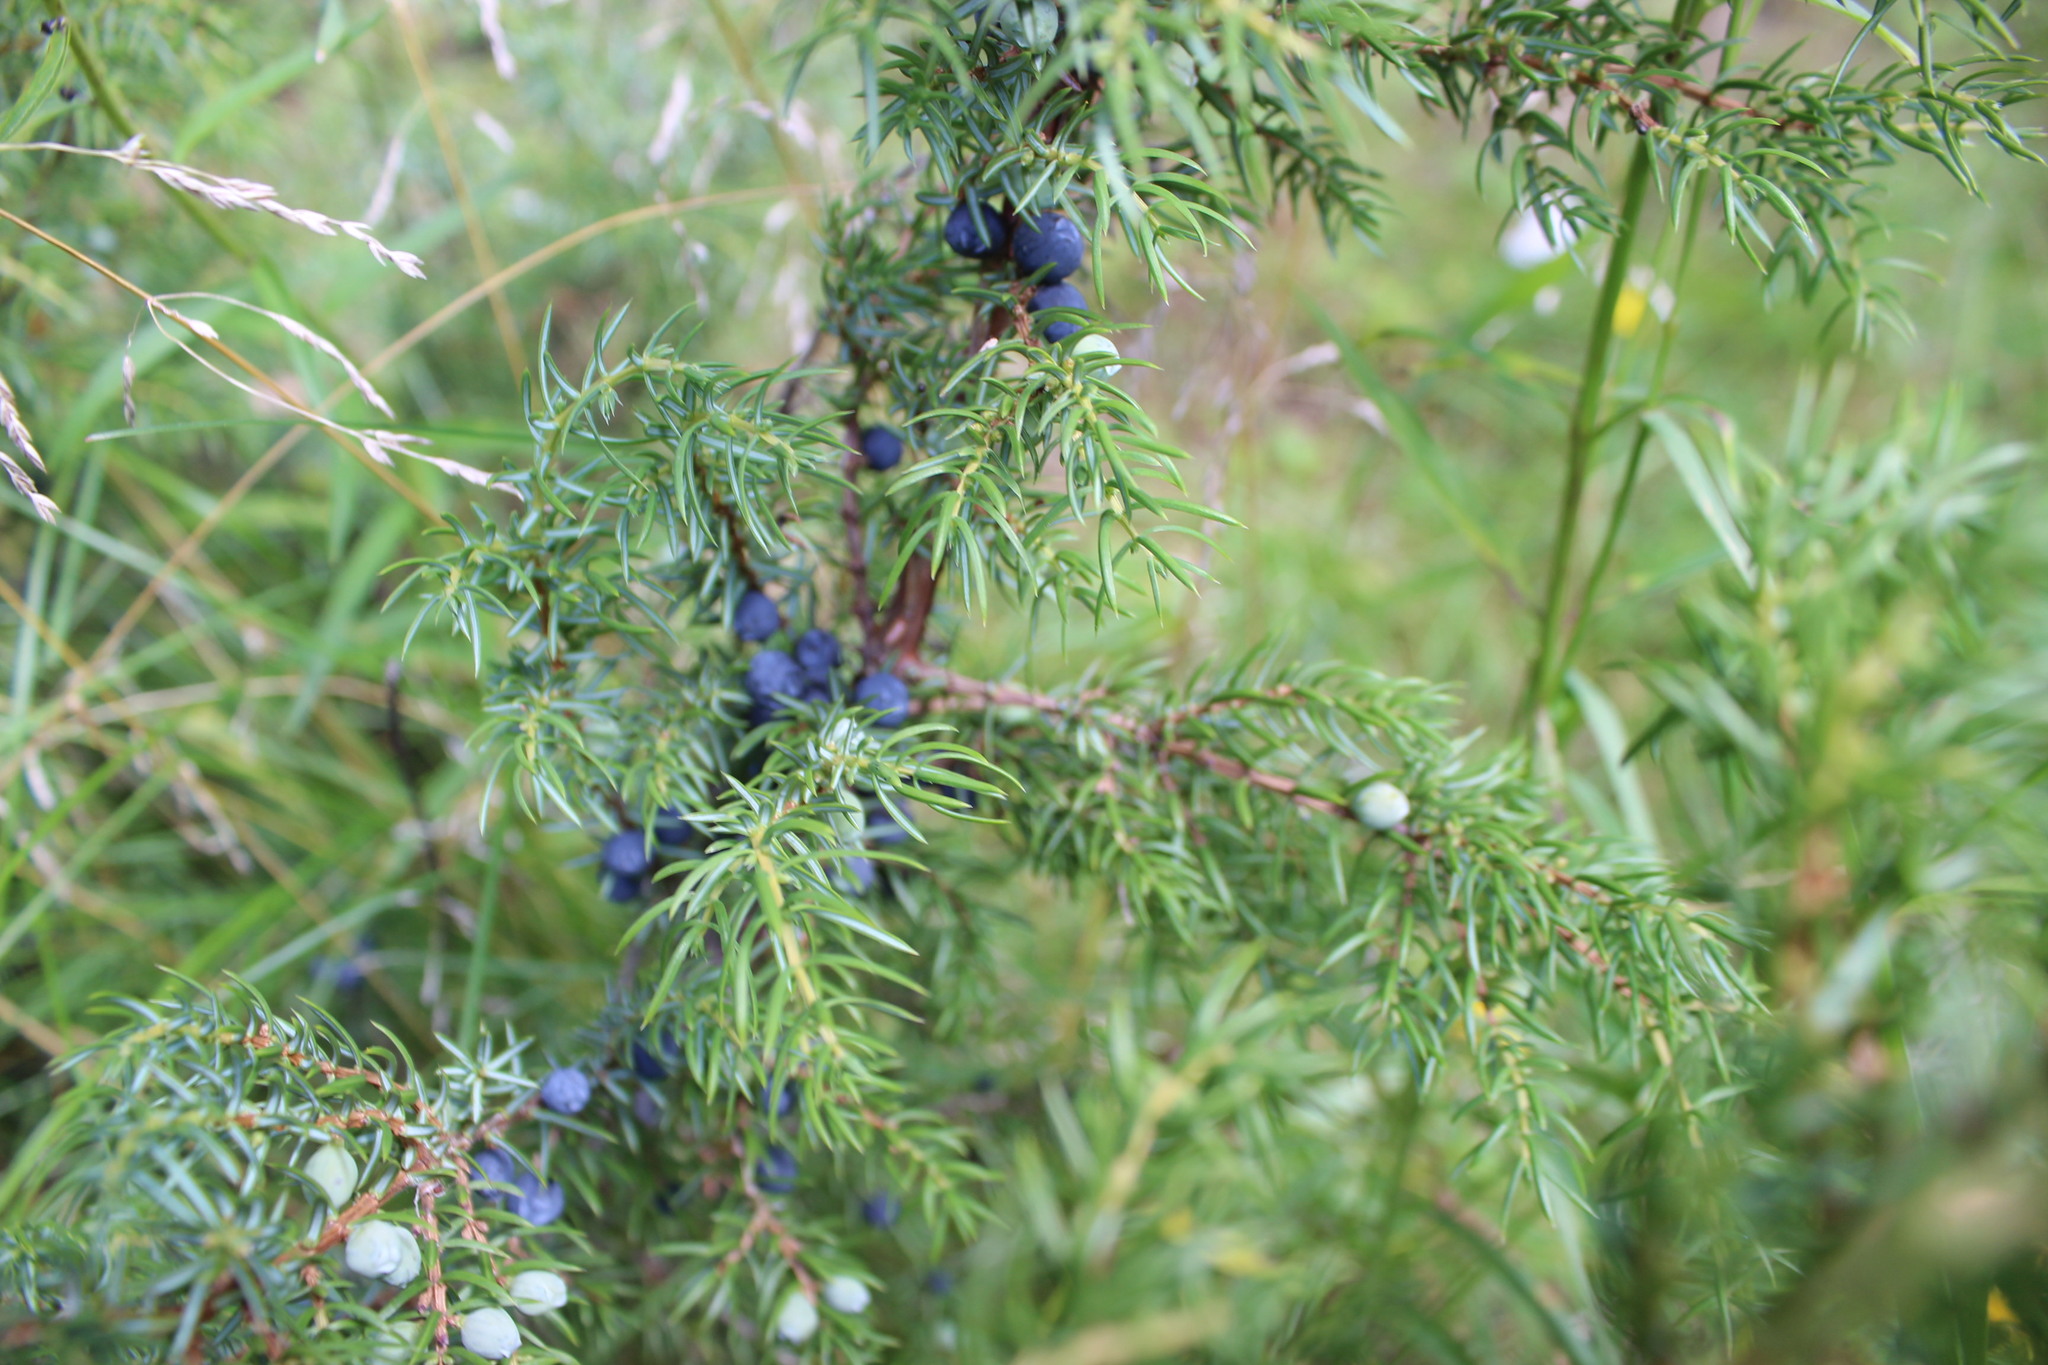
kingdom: Plantae
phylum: Tracheophyta
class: Pinopsida
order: Pinales
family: Cupressaceae
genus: Juniperus
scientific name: Juniperus communis
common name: Common juniper
